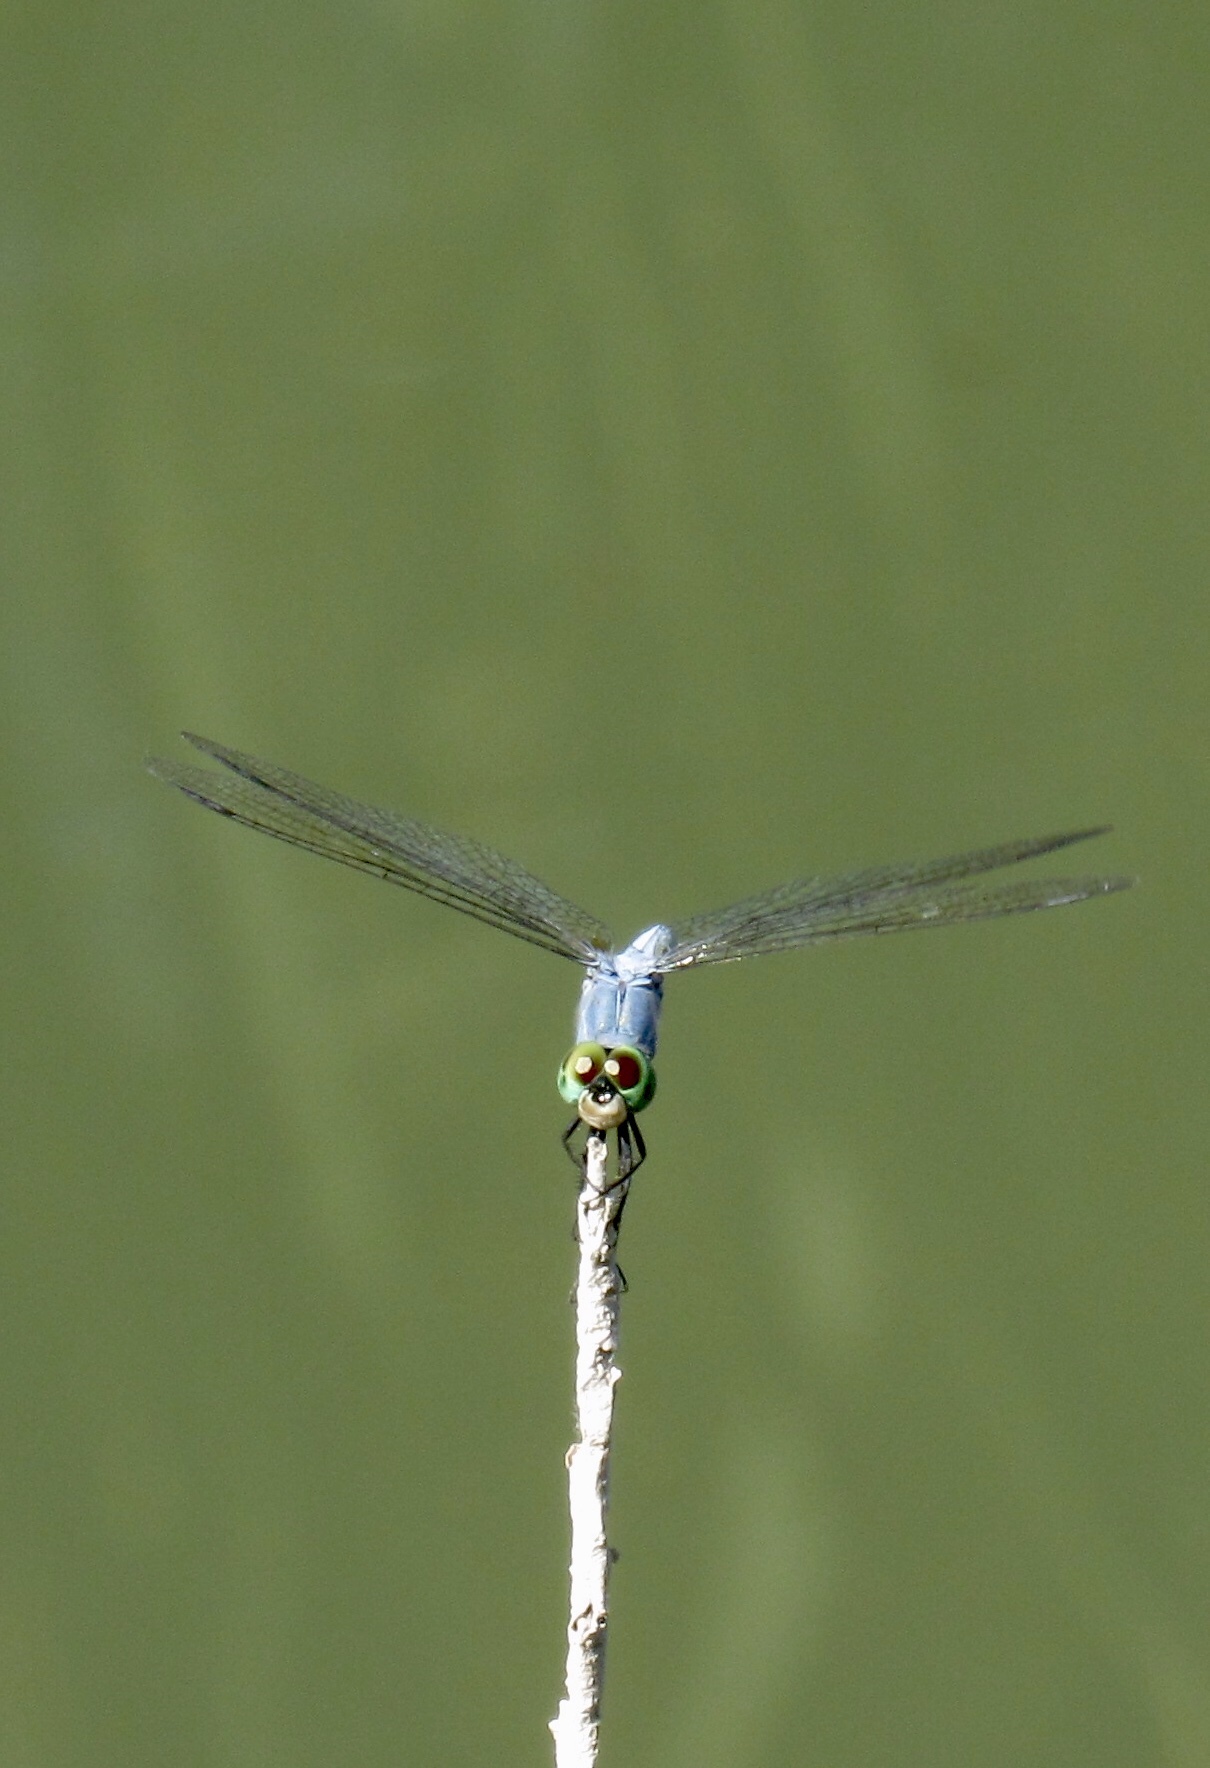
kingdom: Animalia
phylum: Arthropoda
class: Insecta
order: Odonata
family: Libellulidae
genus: Pachydiplax
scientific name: Pachydiplax longipennis
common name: Blue dasher
